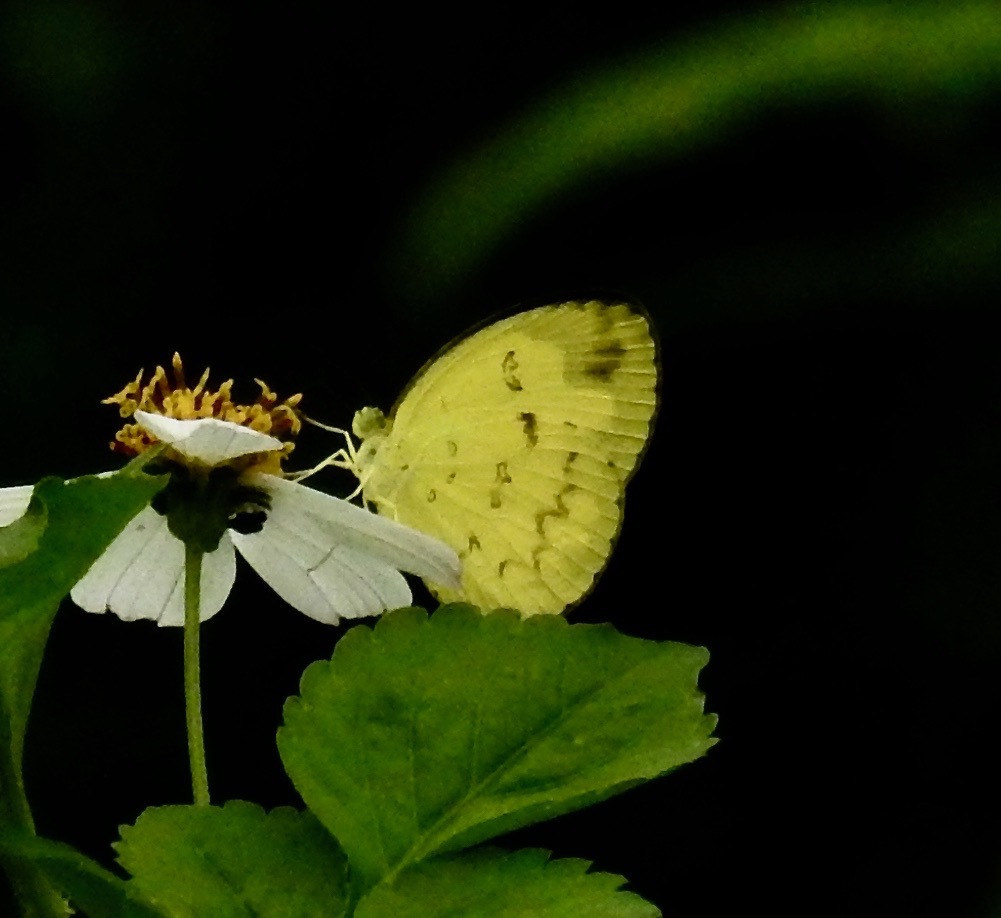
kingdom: Animalia
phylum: Arthropoda
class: Insecta
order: Lepidoptera
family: Pieridae
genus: Eurema
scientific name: Eurema andersoni
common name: One-spot yellow grass
